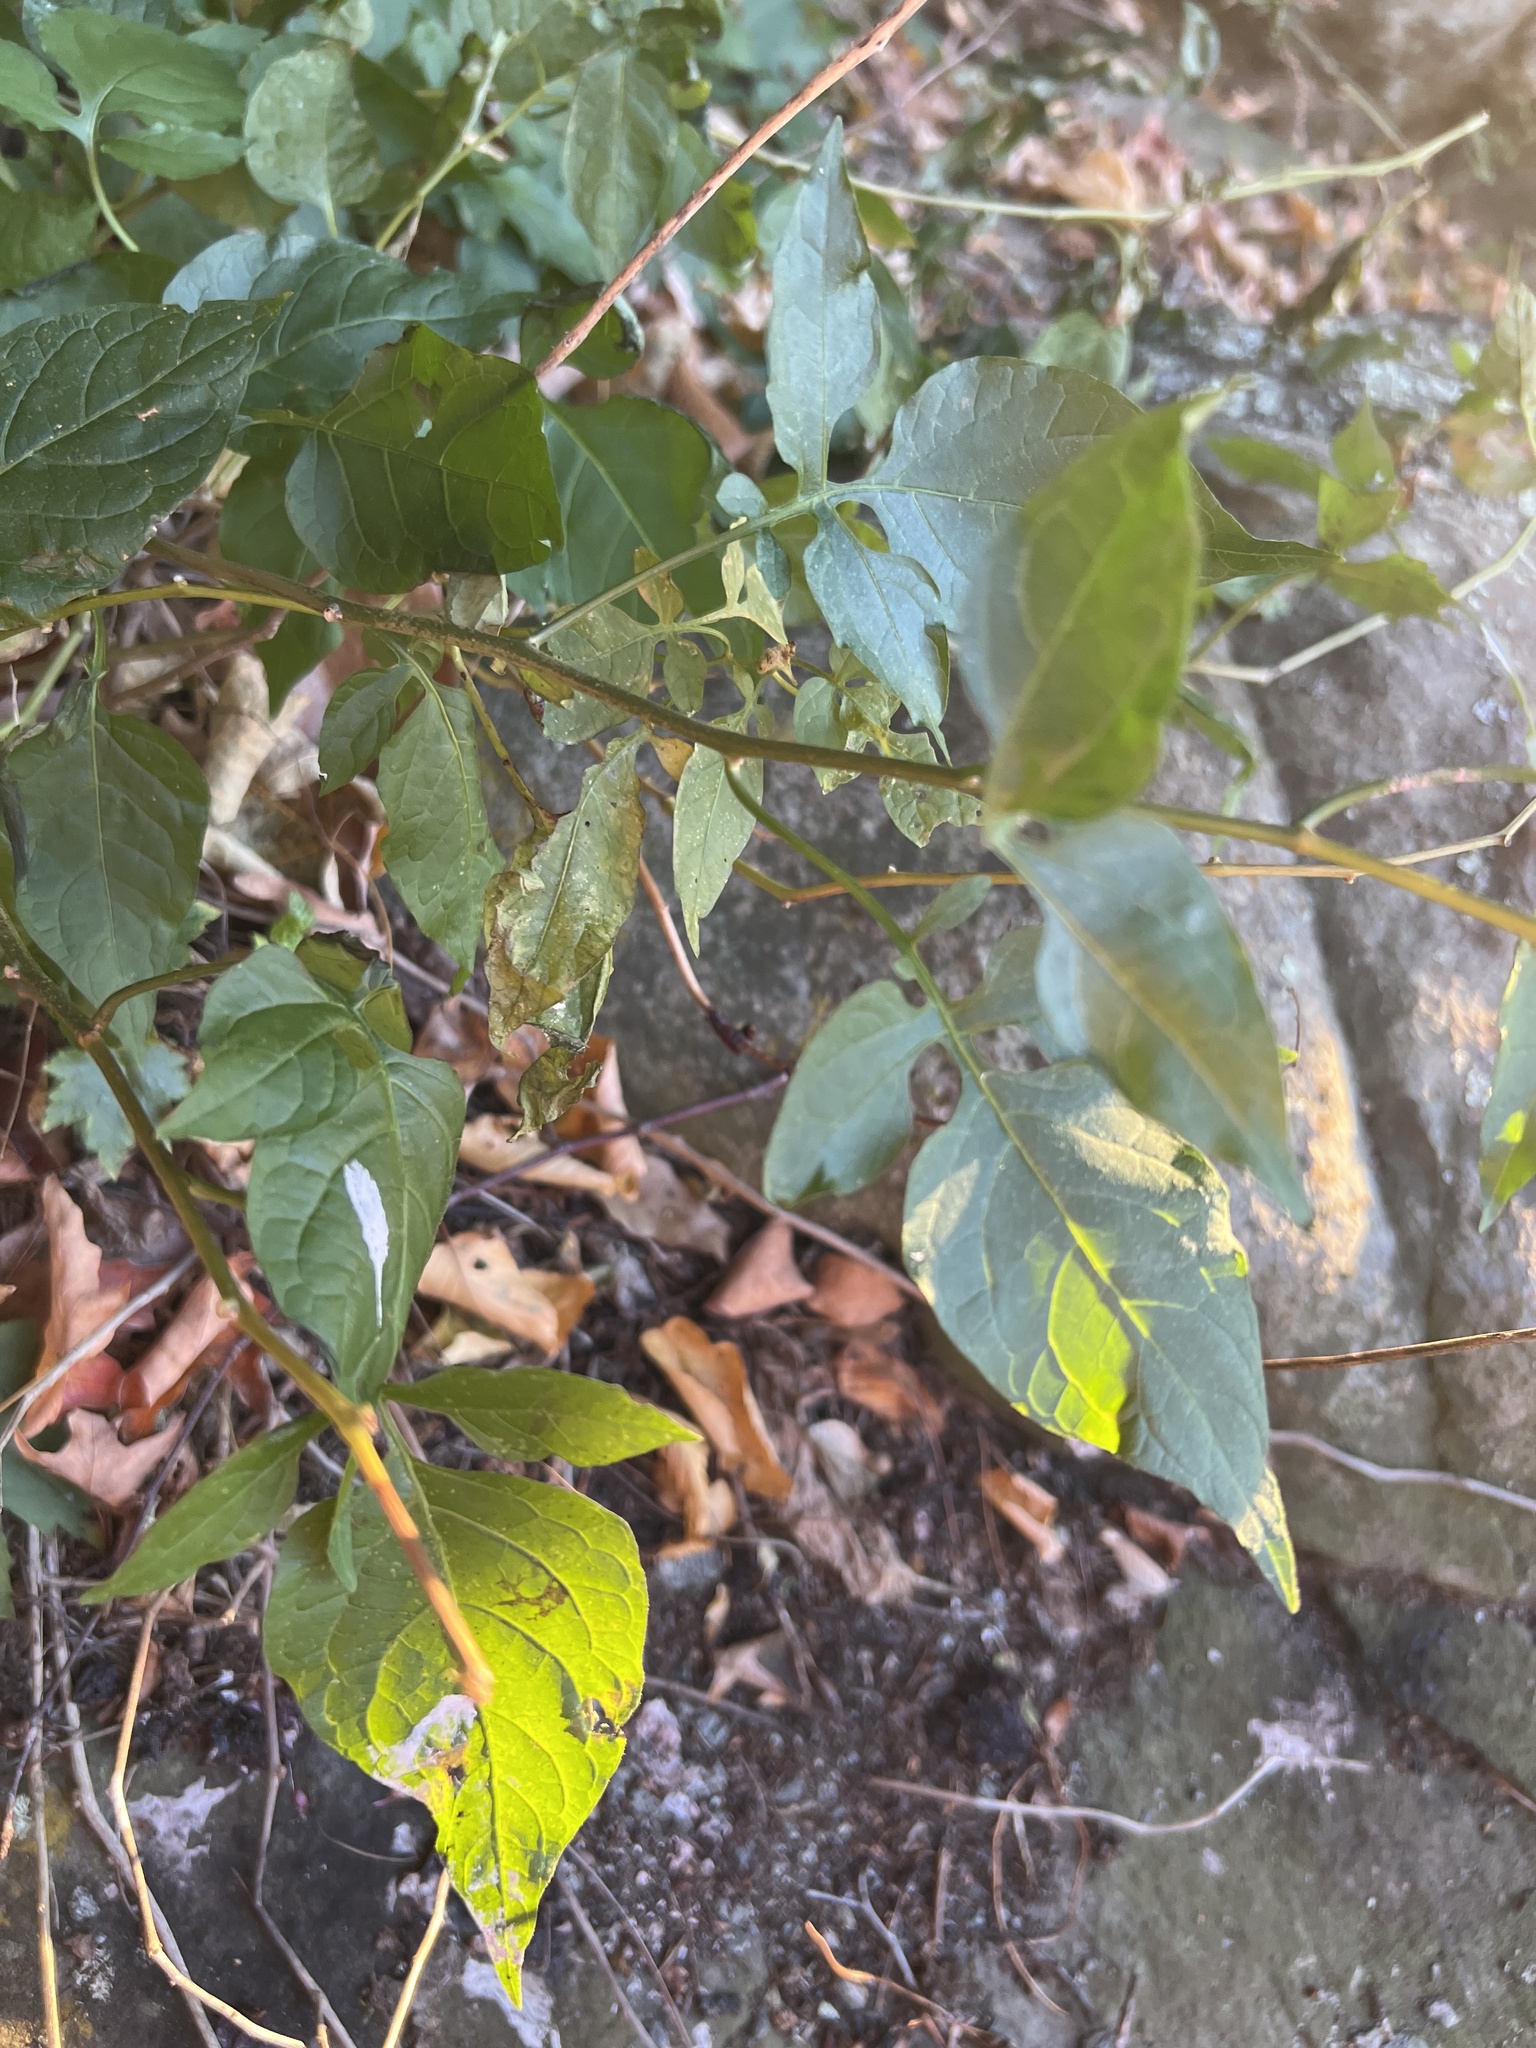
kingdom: Plantae
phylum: Tracheophyta
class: Magnoliopsida
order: Solanales
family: Solanaceae
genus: Solanum
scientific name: Solanum dulcamara
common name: Climbing nightshade
